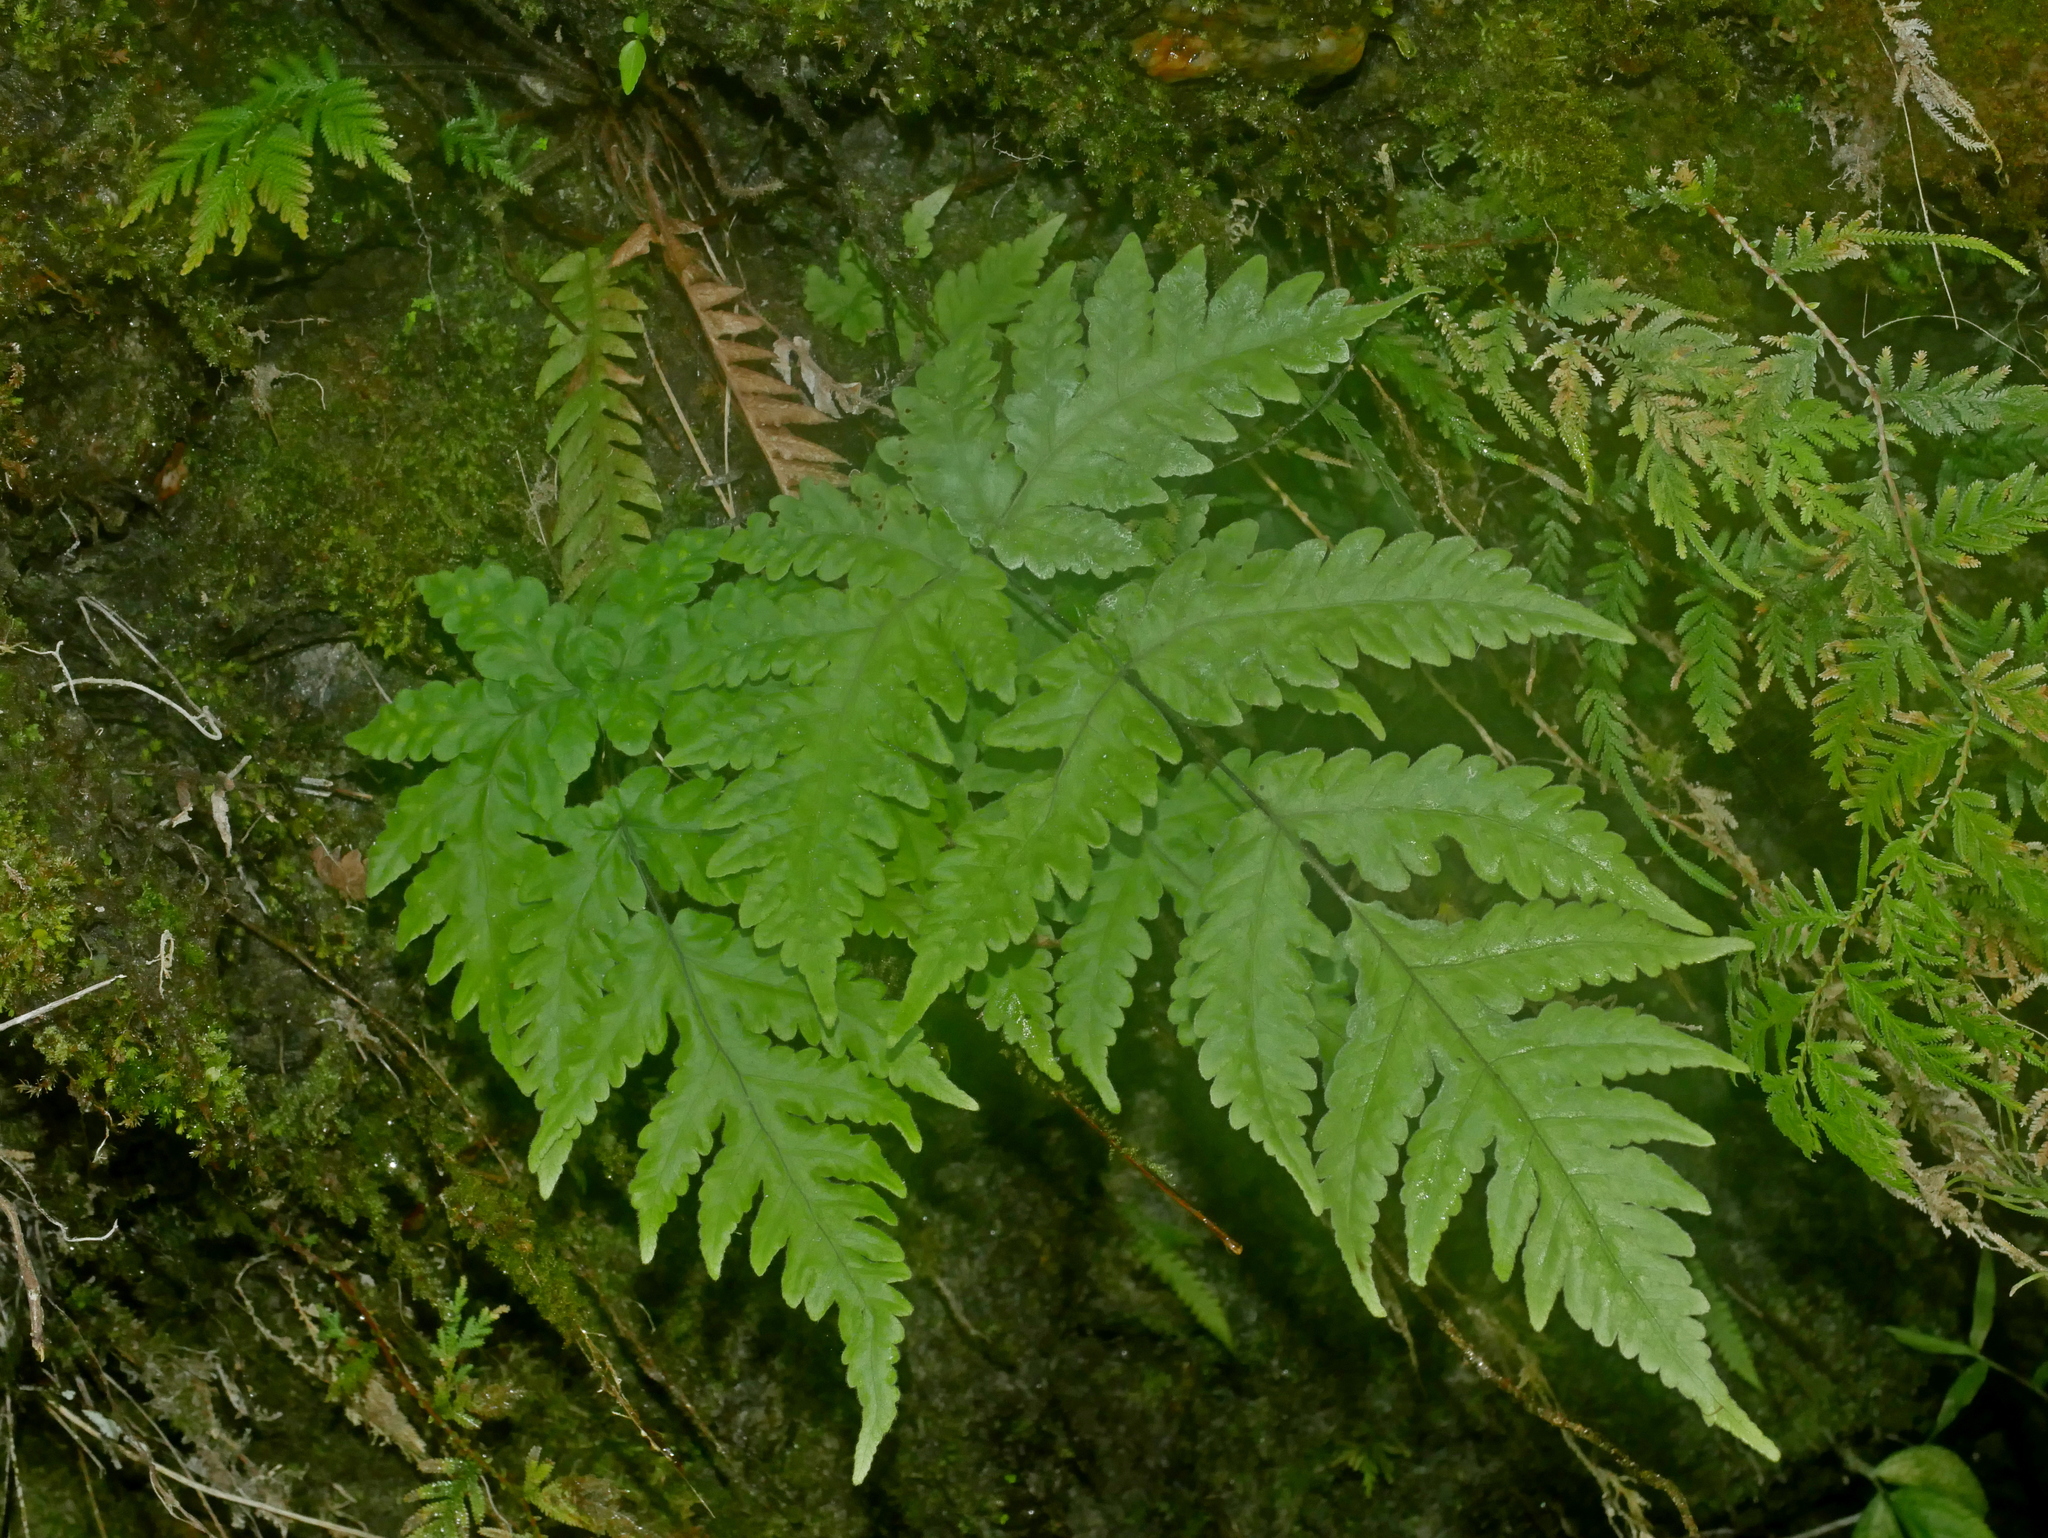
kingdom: Plantae
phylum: Tracheophyta
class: Polypodiopsida
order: Polypodiales
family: Tectariaceae
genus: Tectaria
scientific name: Tectaria coadunata
